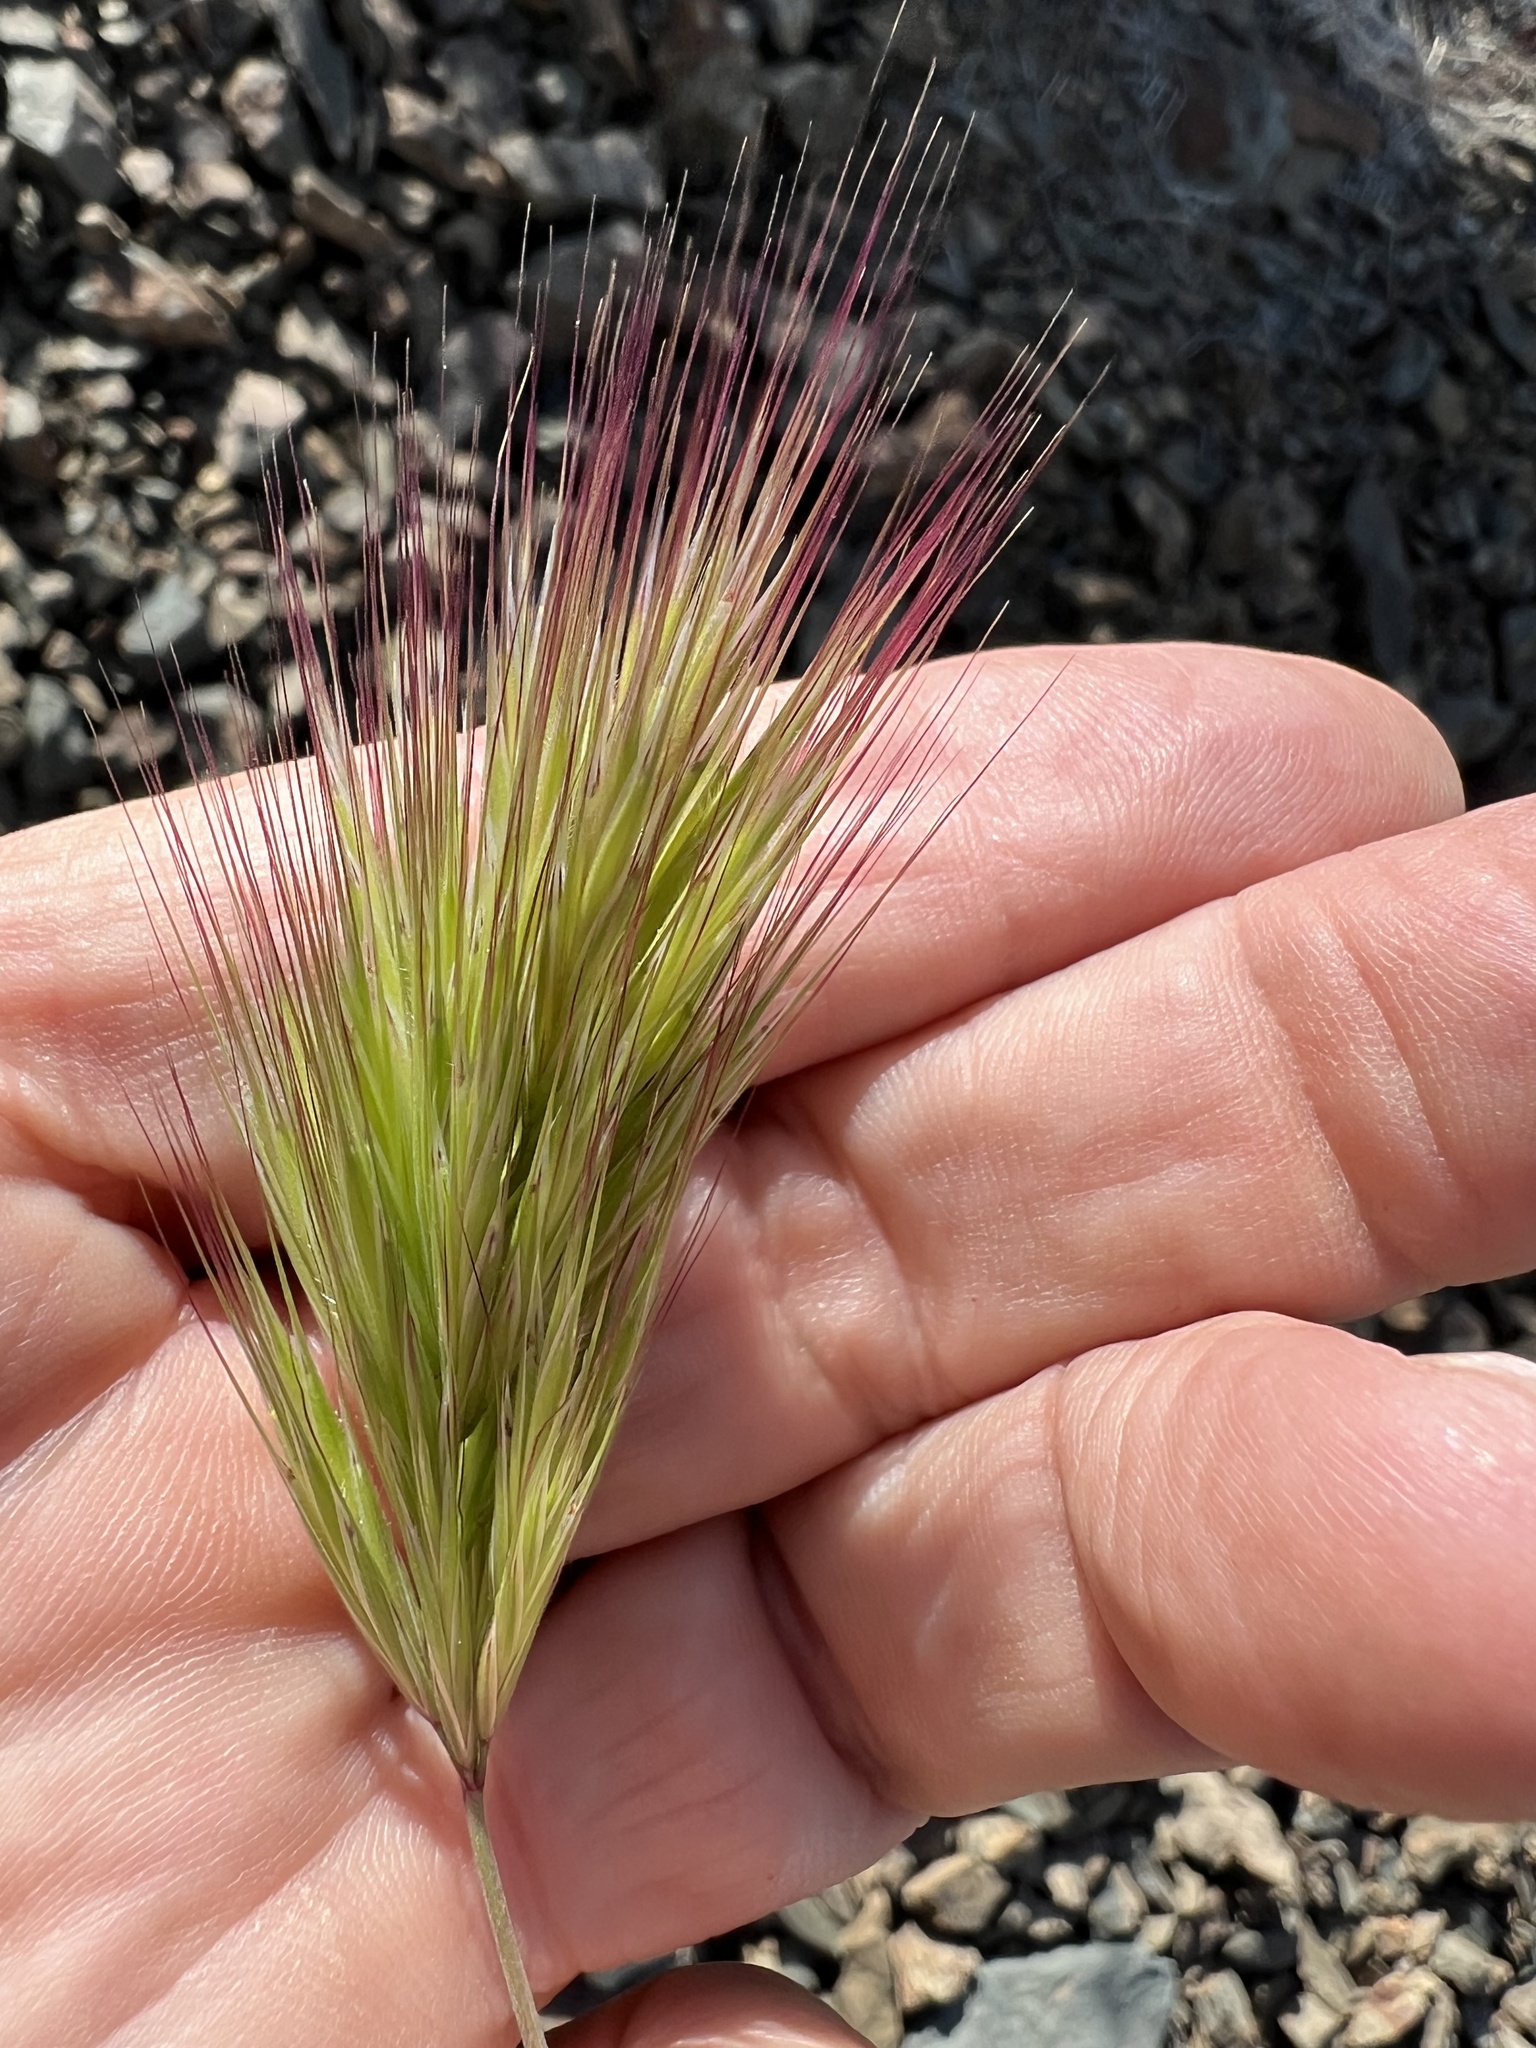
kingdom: Plantae
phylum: Tracheophyta
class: Liliopsida
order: Poales
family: Poaceae
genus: Bromus
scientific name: Bromus rubens
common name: Red brome
